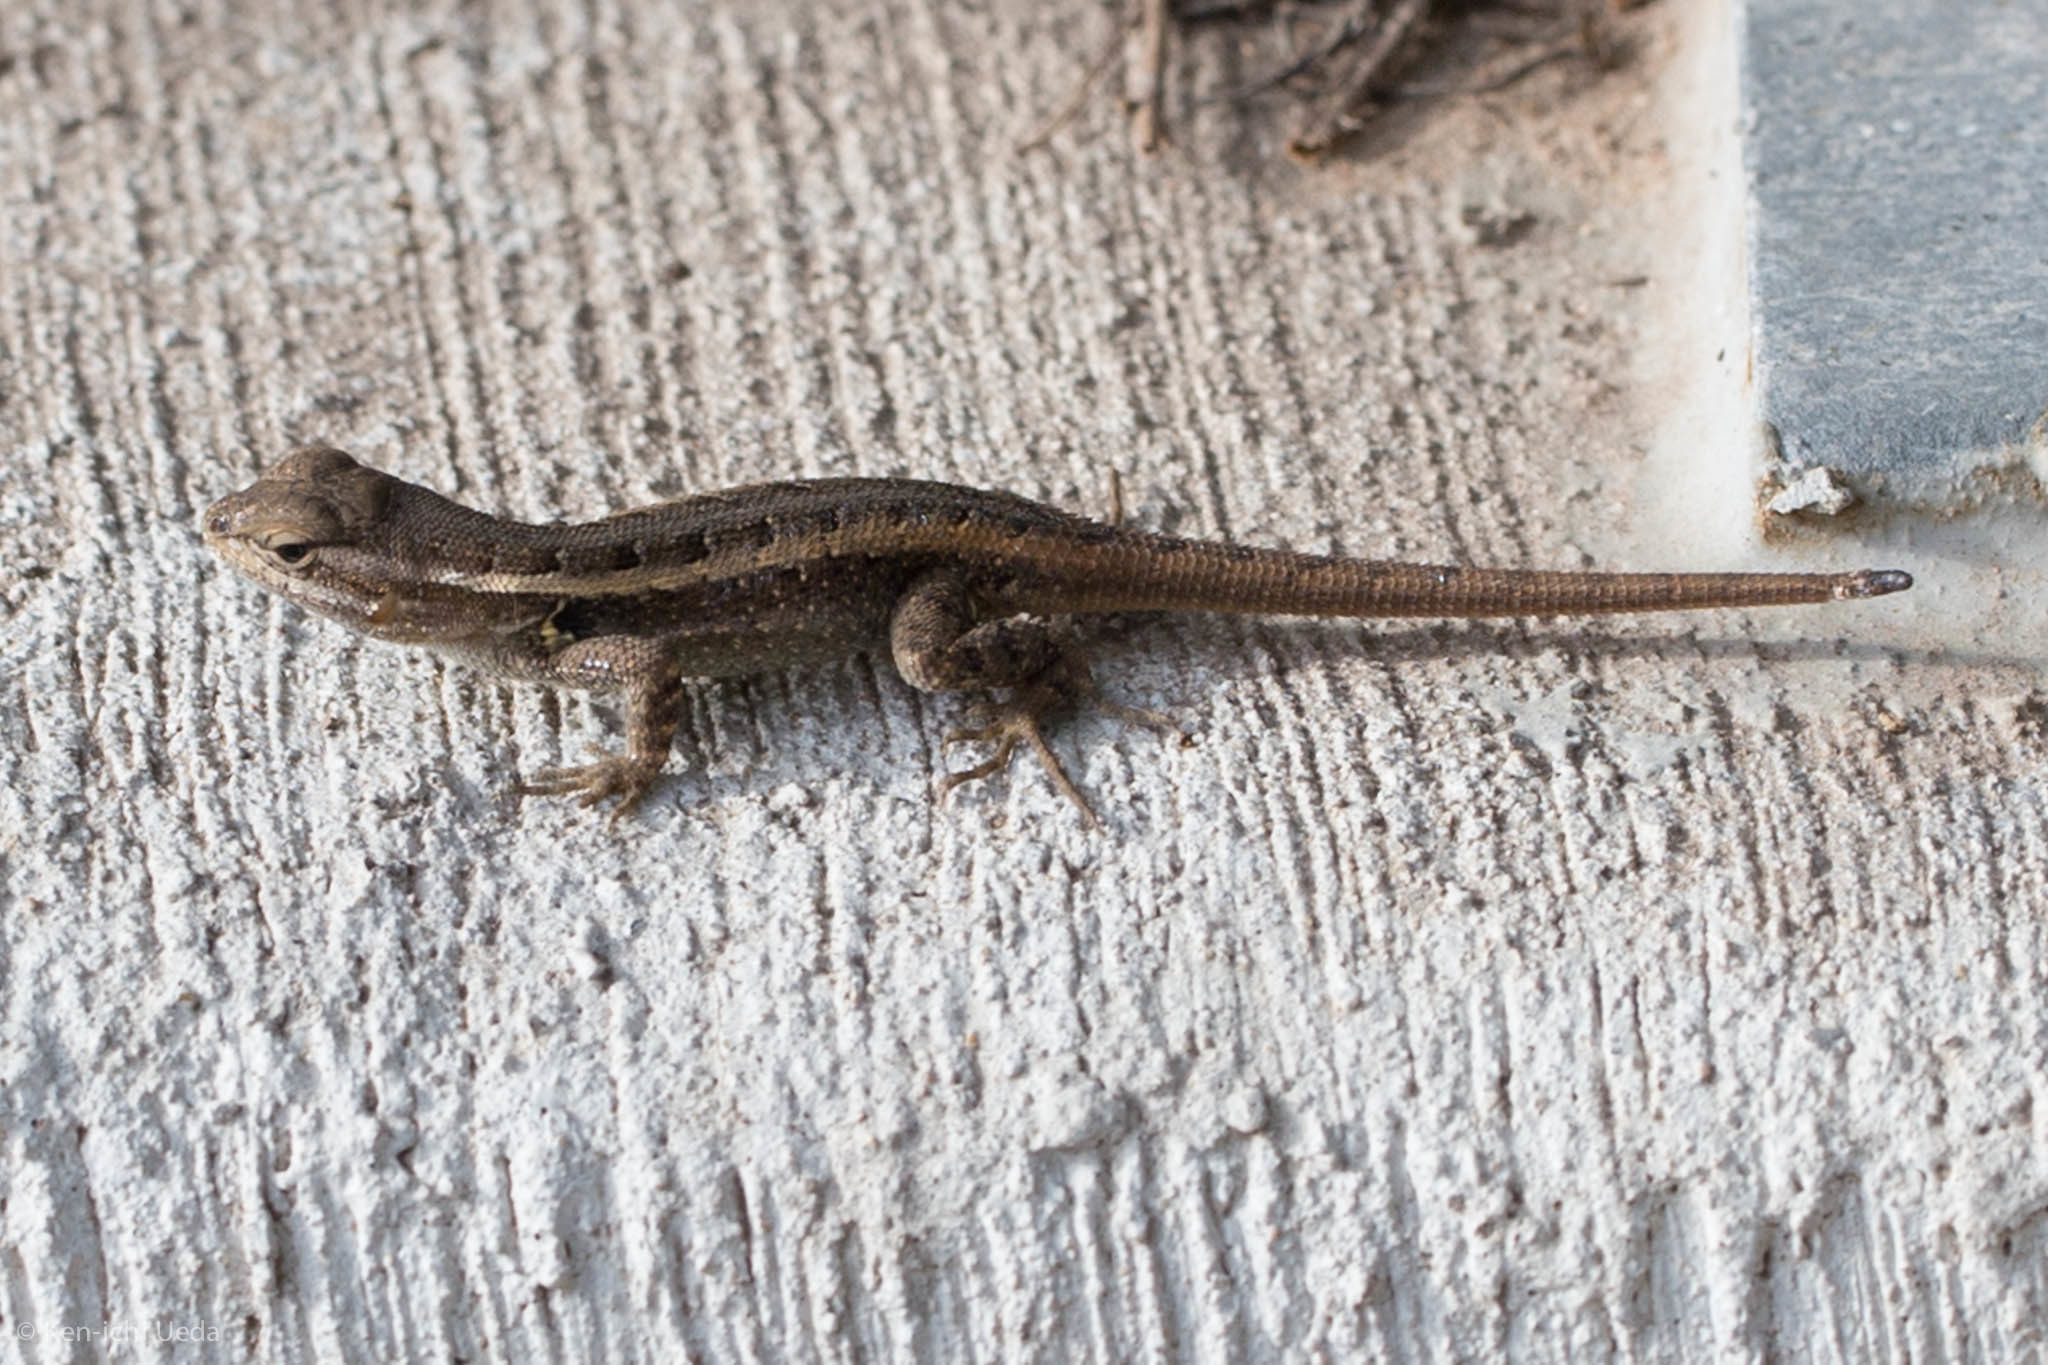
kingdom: Animalia
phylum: Chordata
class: Squamata
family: Phrynosomatidae
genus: Sceloporus
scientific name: Sceloporus variabilis
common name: Rosebelly lizard
